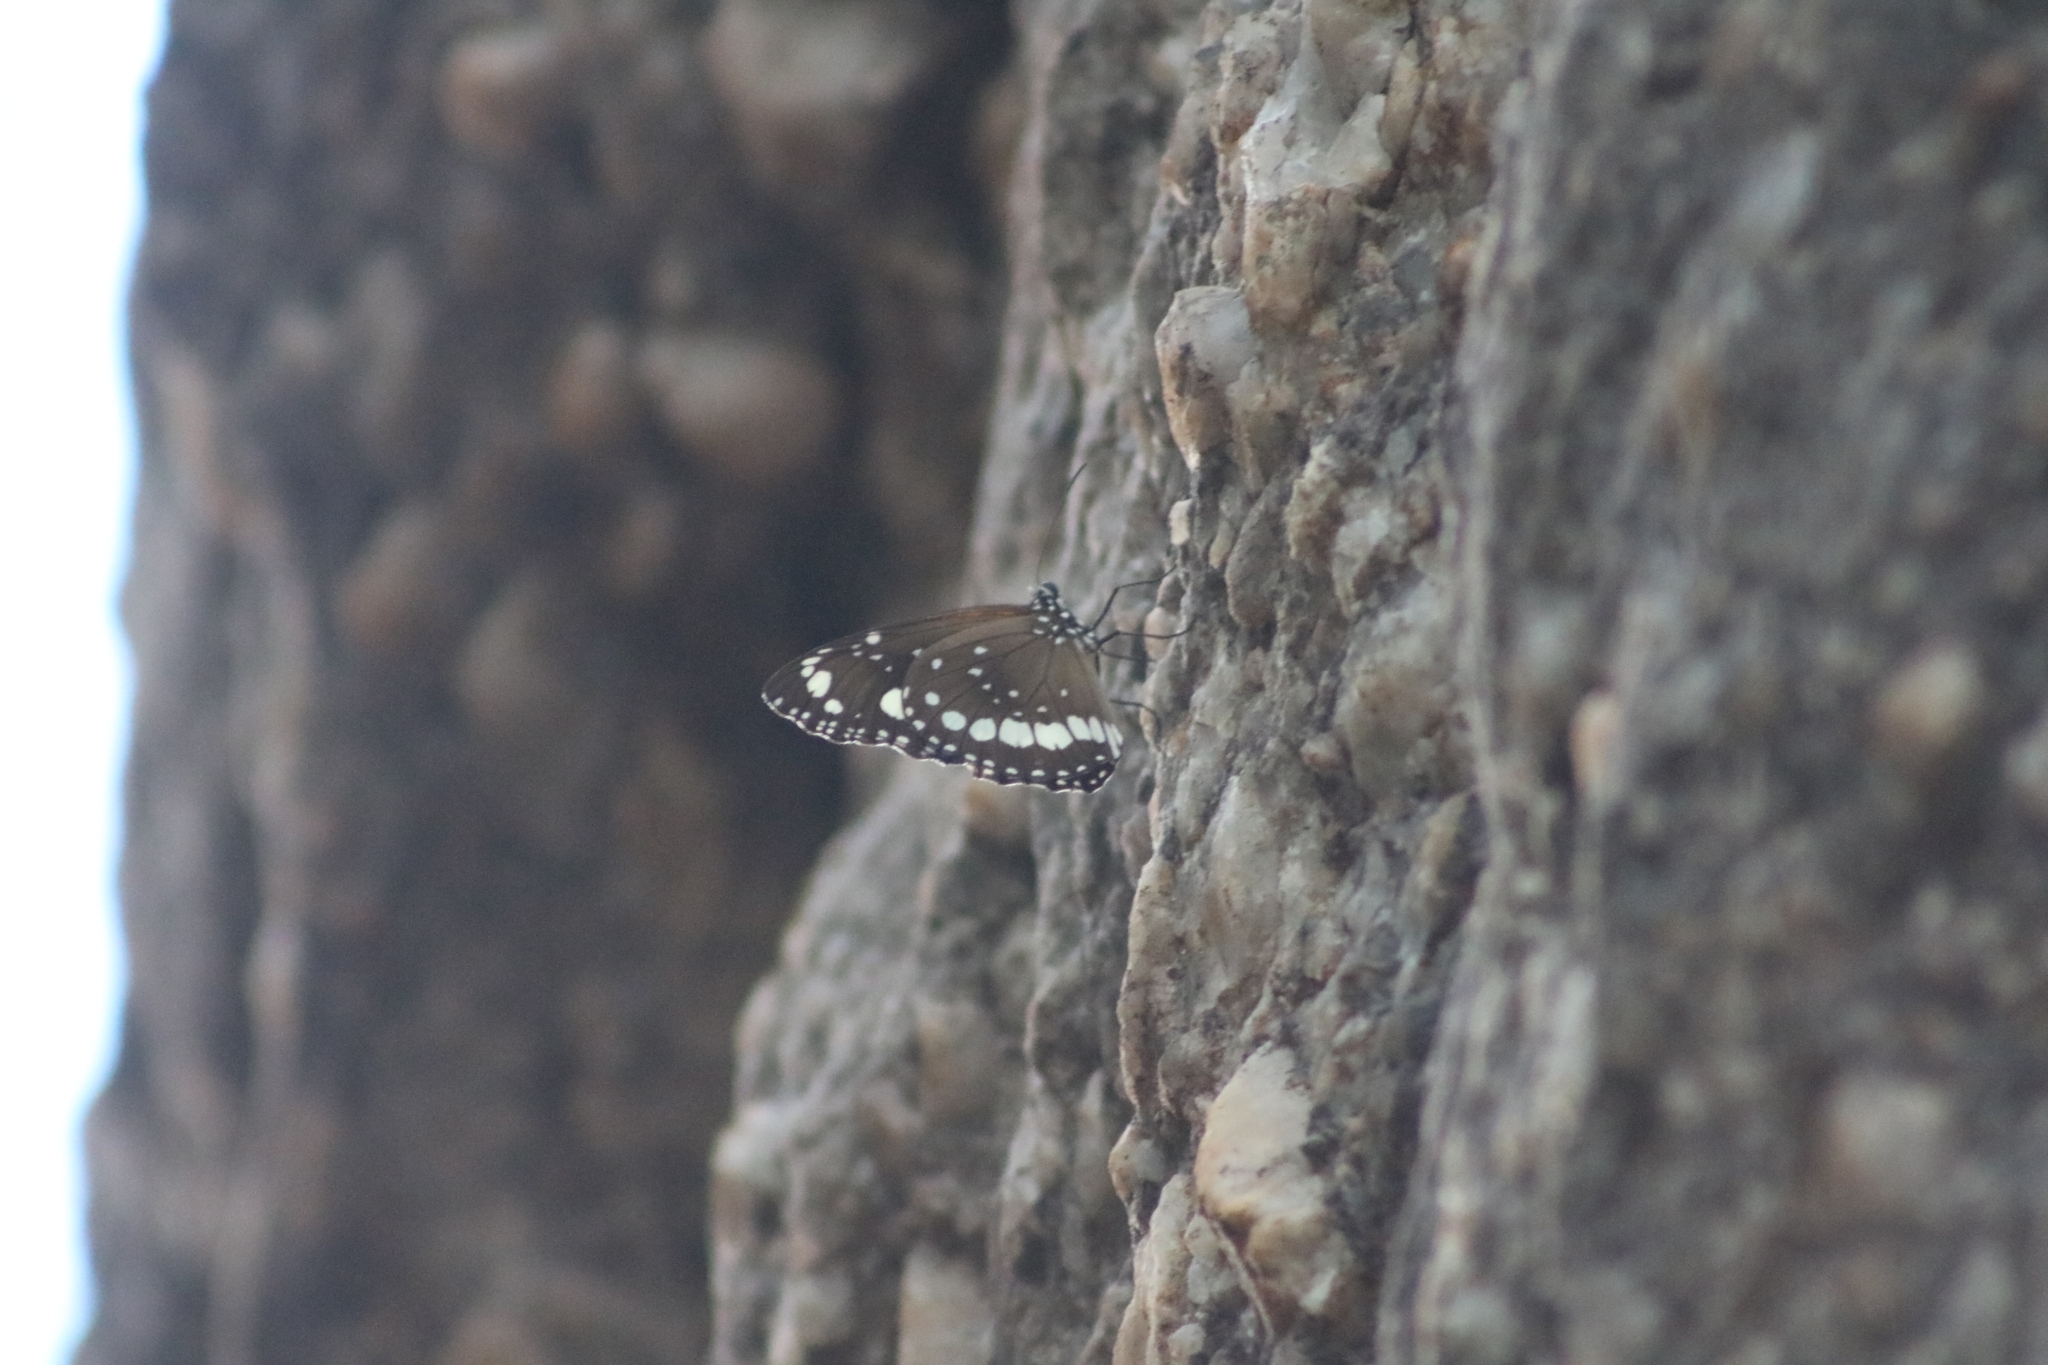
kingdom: Animalia
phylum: Arthropoda
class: Insecta
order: Lepidoptera
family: Nymphalidae
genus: Euploea
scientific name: Euploea core
